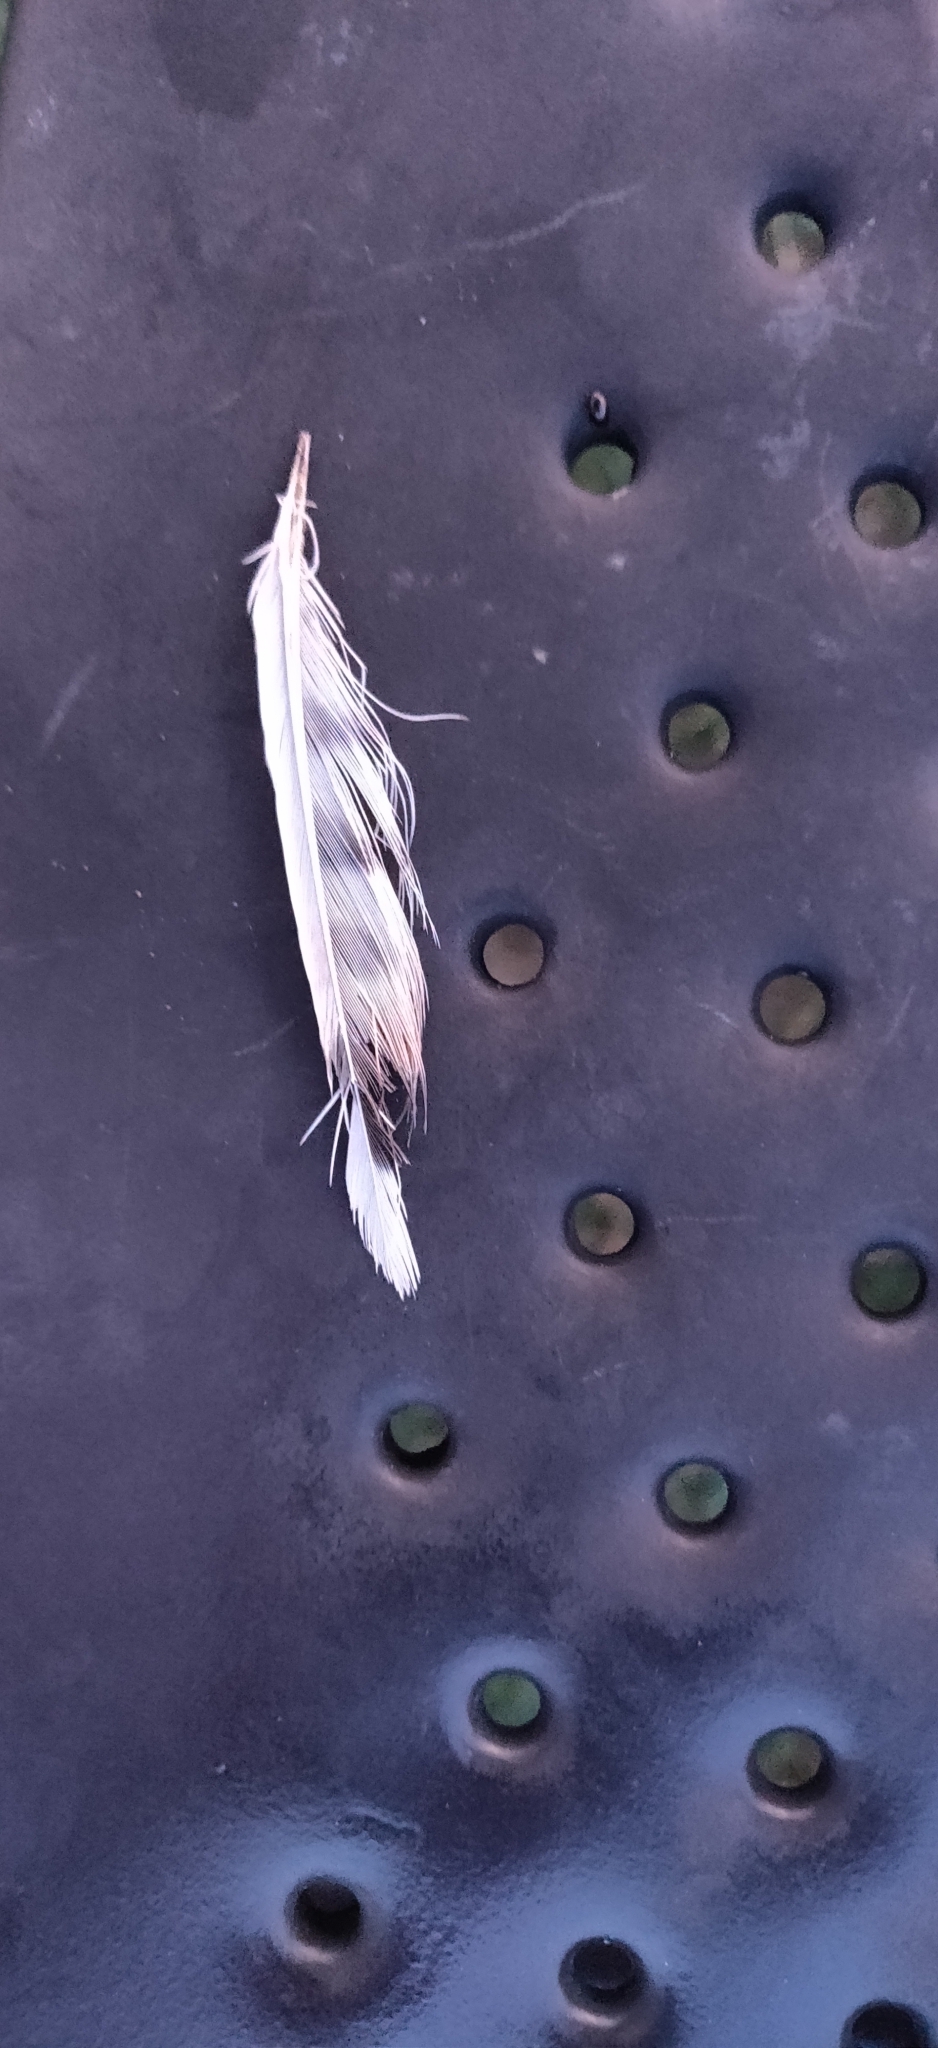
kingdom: Animalia
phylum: Chordata
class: Aves
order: Charadriiformes
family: Charadriidae
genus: Charadrius
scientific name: Charadrius vociferus
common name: Killdeer
